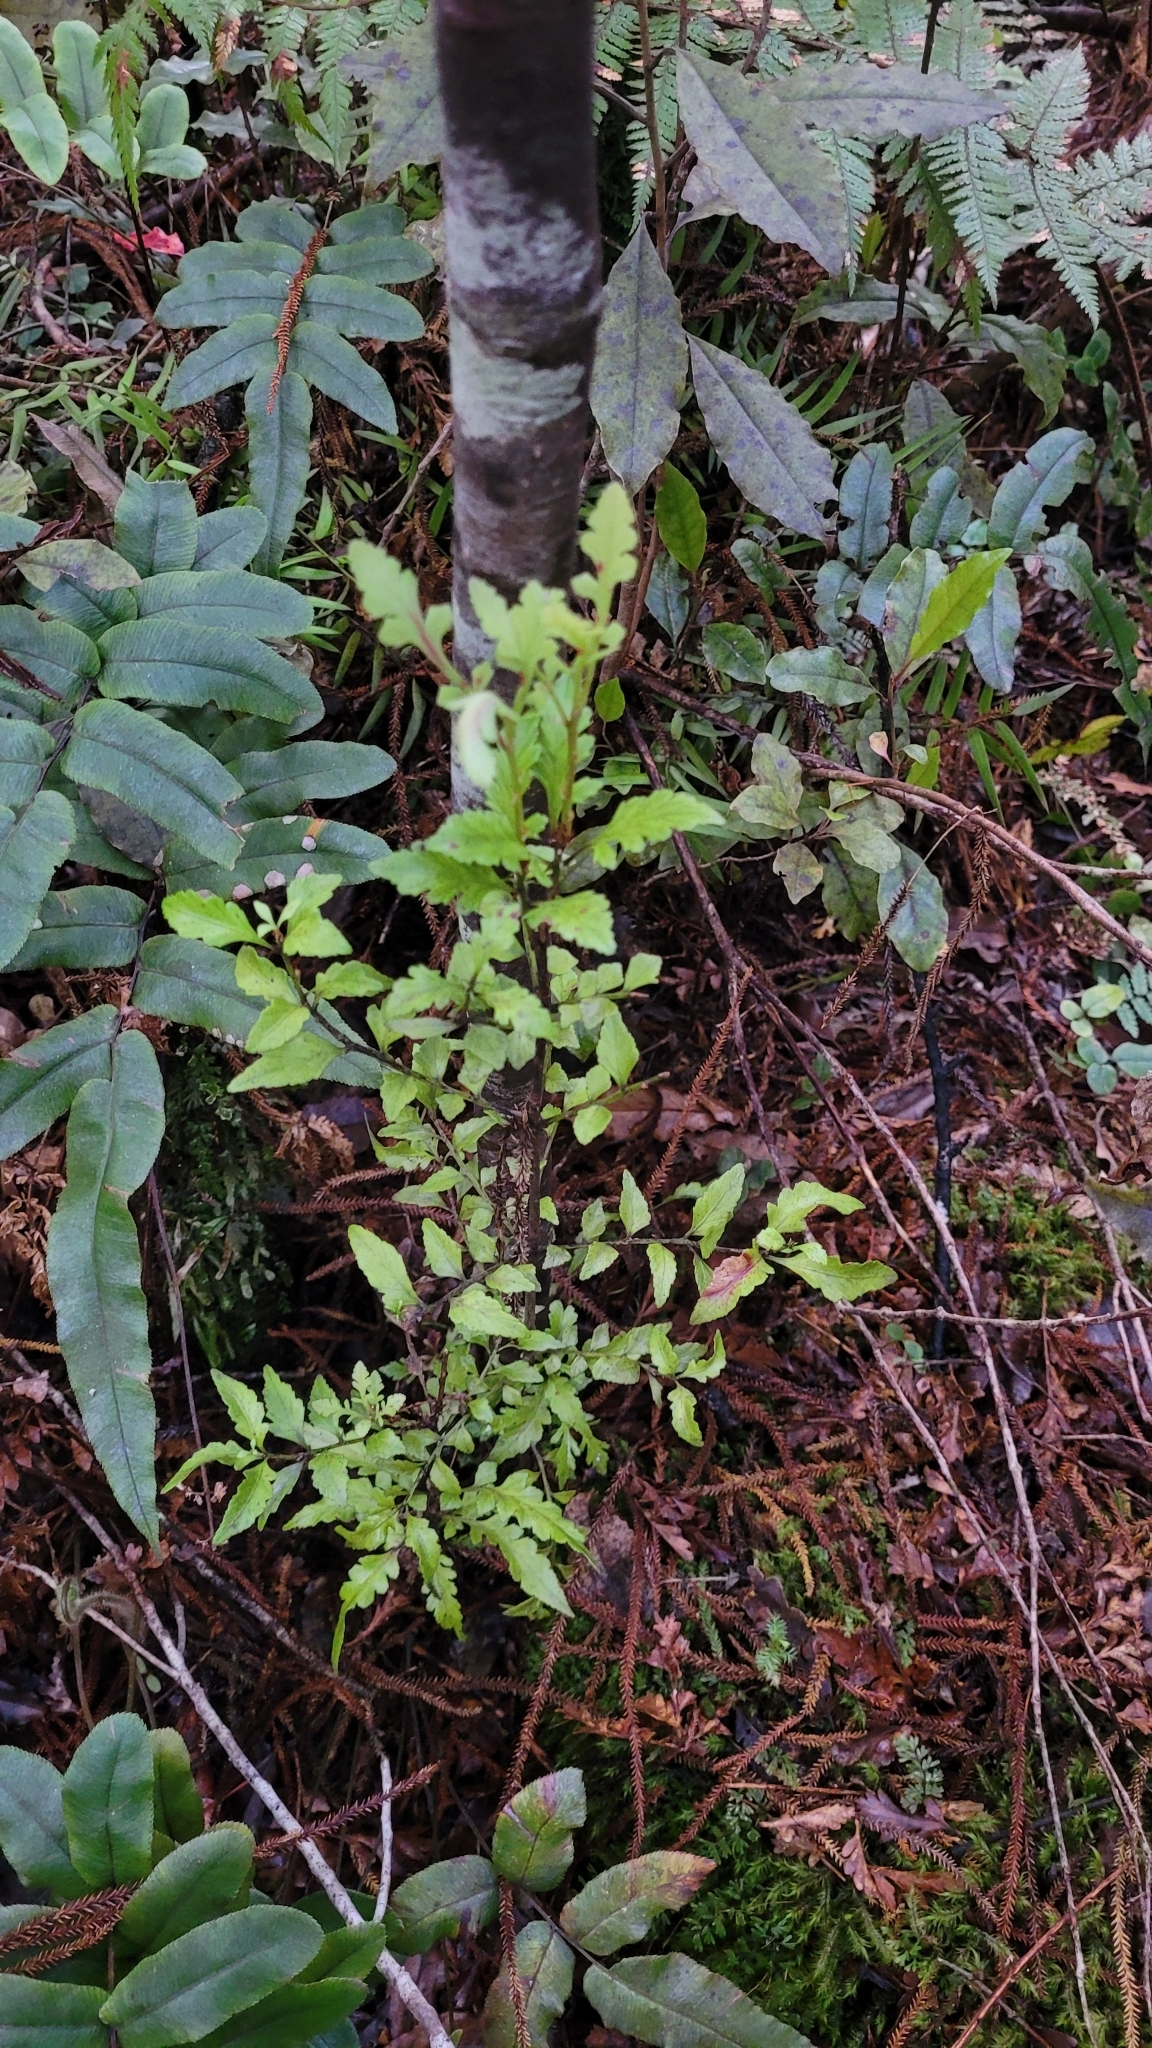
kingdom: Plantae
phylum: Tracheophyta
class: Pinopsida
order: Pinales
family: Phyllocladaceae
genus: Phyllocladus
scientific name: Phyllocladus trichomanoides
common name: Celery pine
